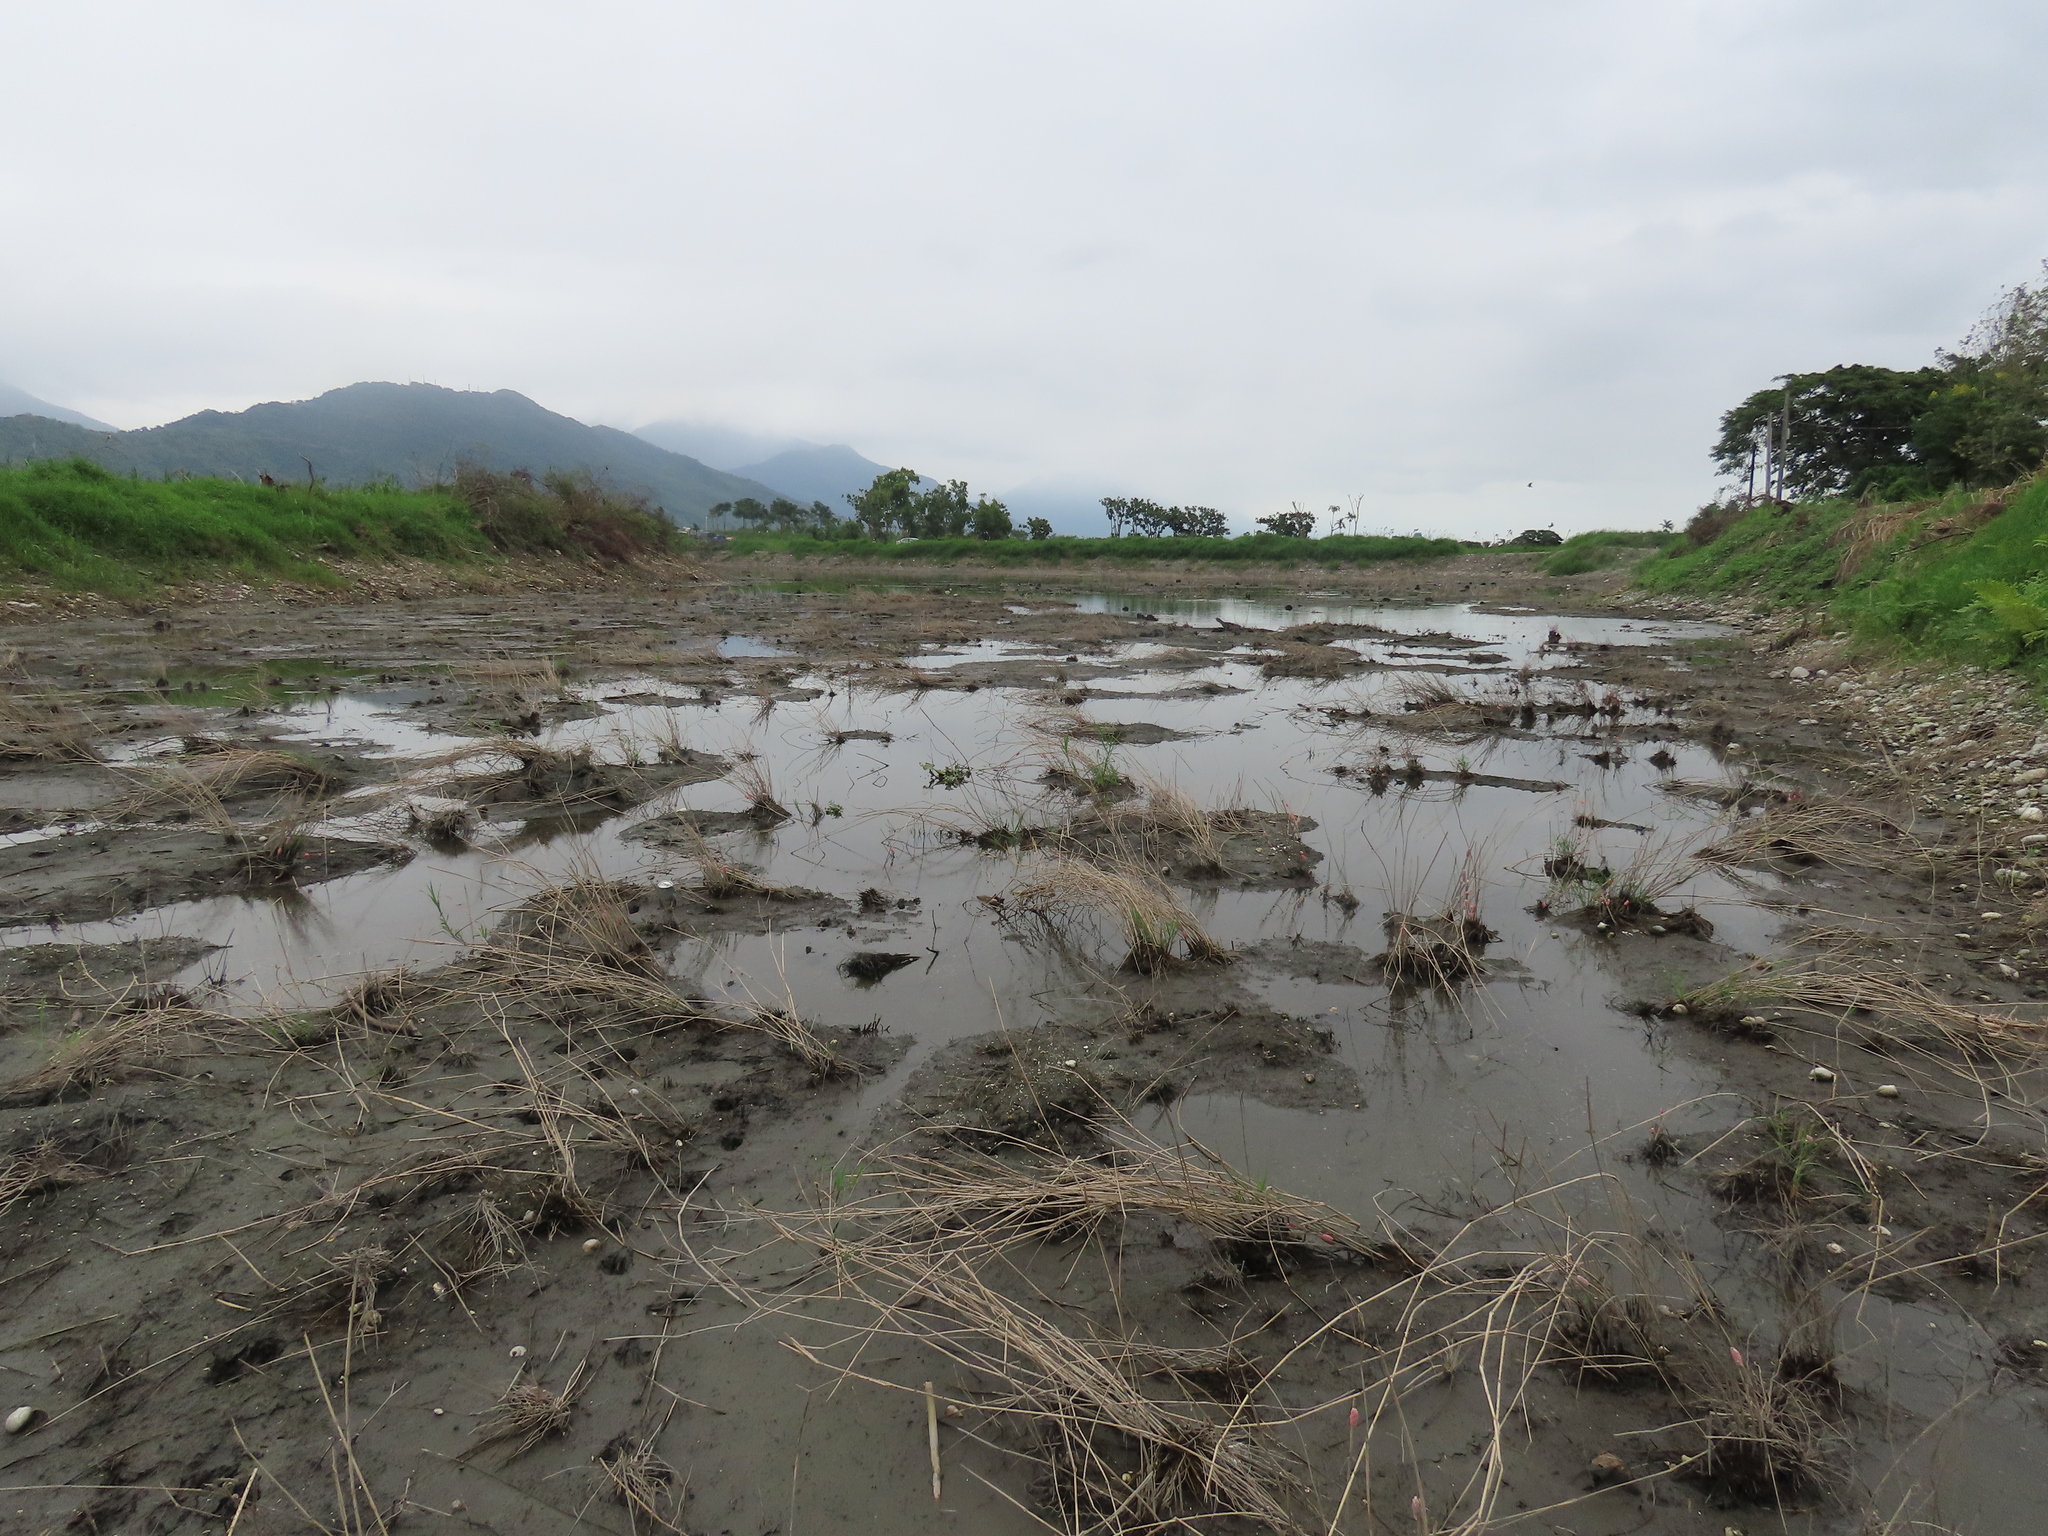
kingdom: Plantae
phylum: Tracheophyta
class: Magnoliopsida
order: Solanales
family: Convolvulaceae
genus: Ipomoea
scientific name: Ipomoea aquatica
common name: Swamp morning-glory
